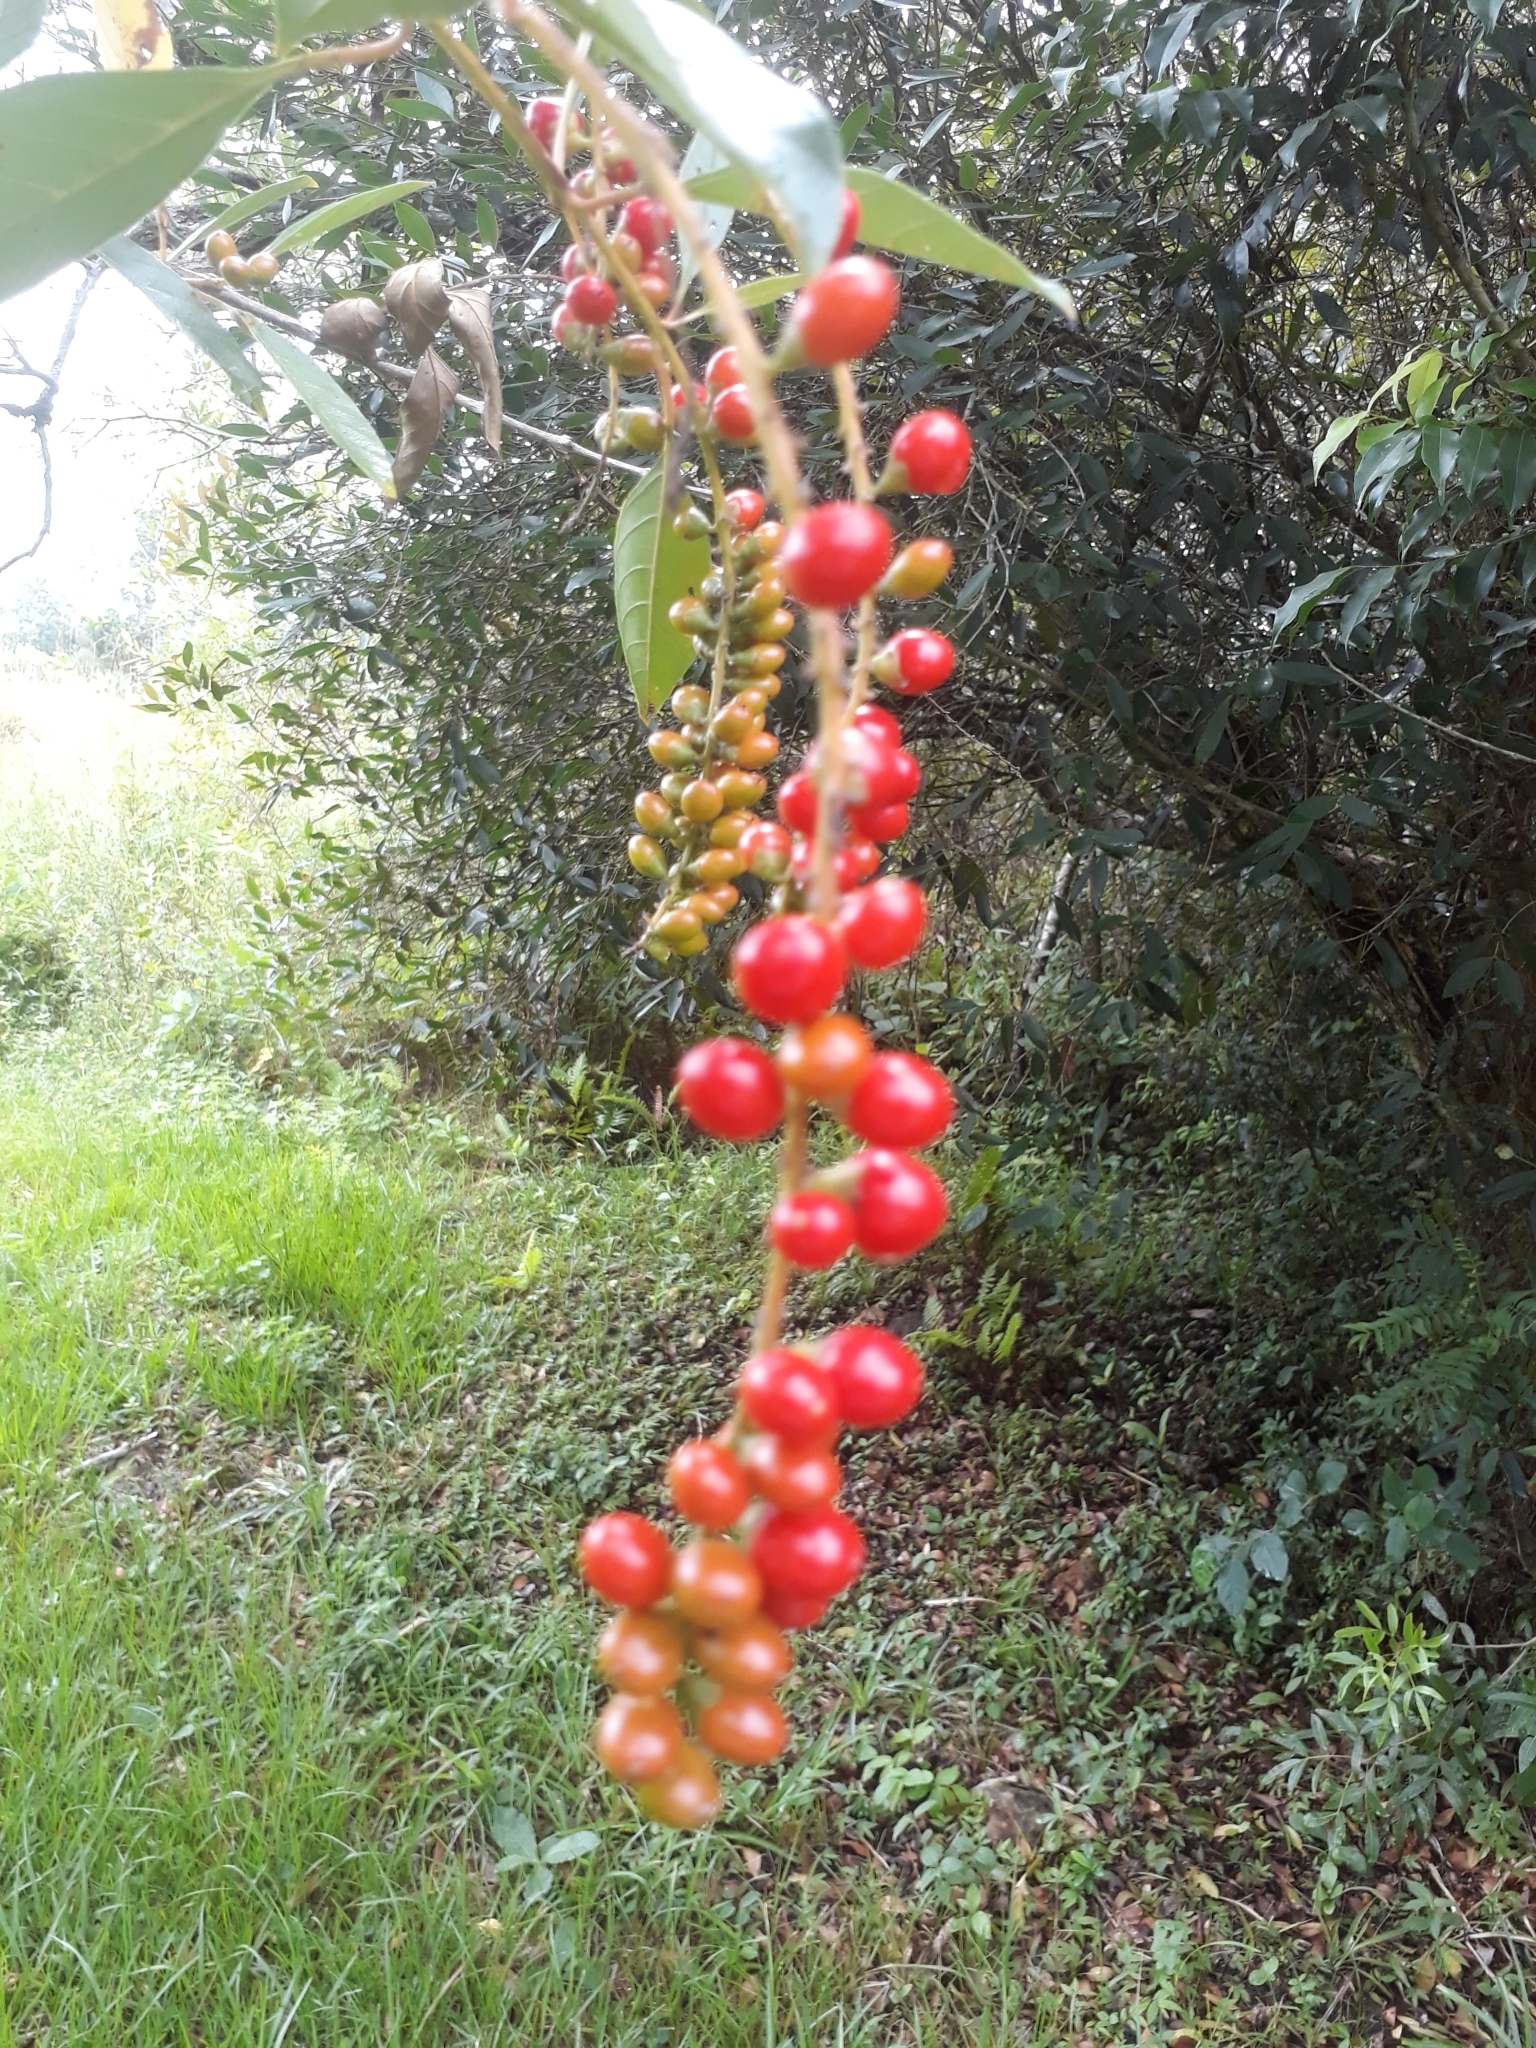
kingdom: Plantae
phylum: Tracheophyta
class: Magnoliopsida
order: Lamiales
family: Verbenaceae
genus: Citharexylum
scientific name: Citharexylum montevidense
